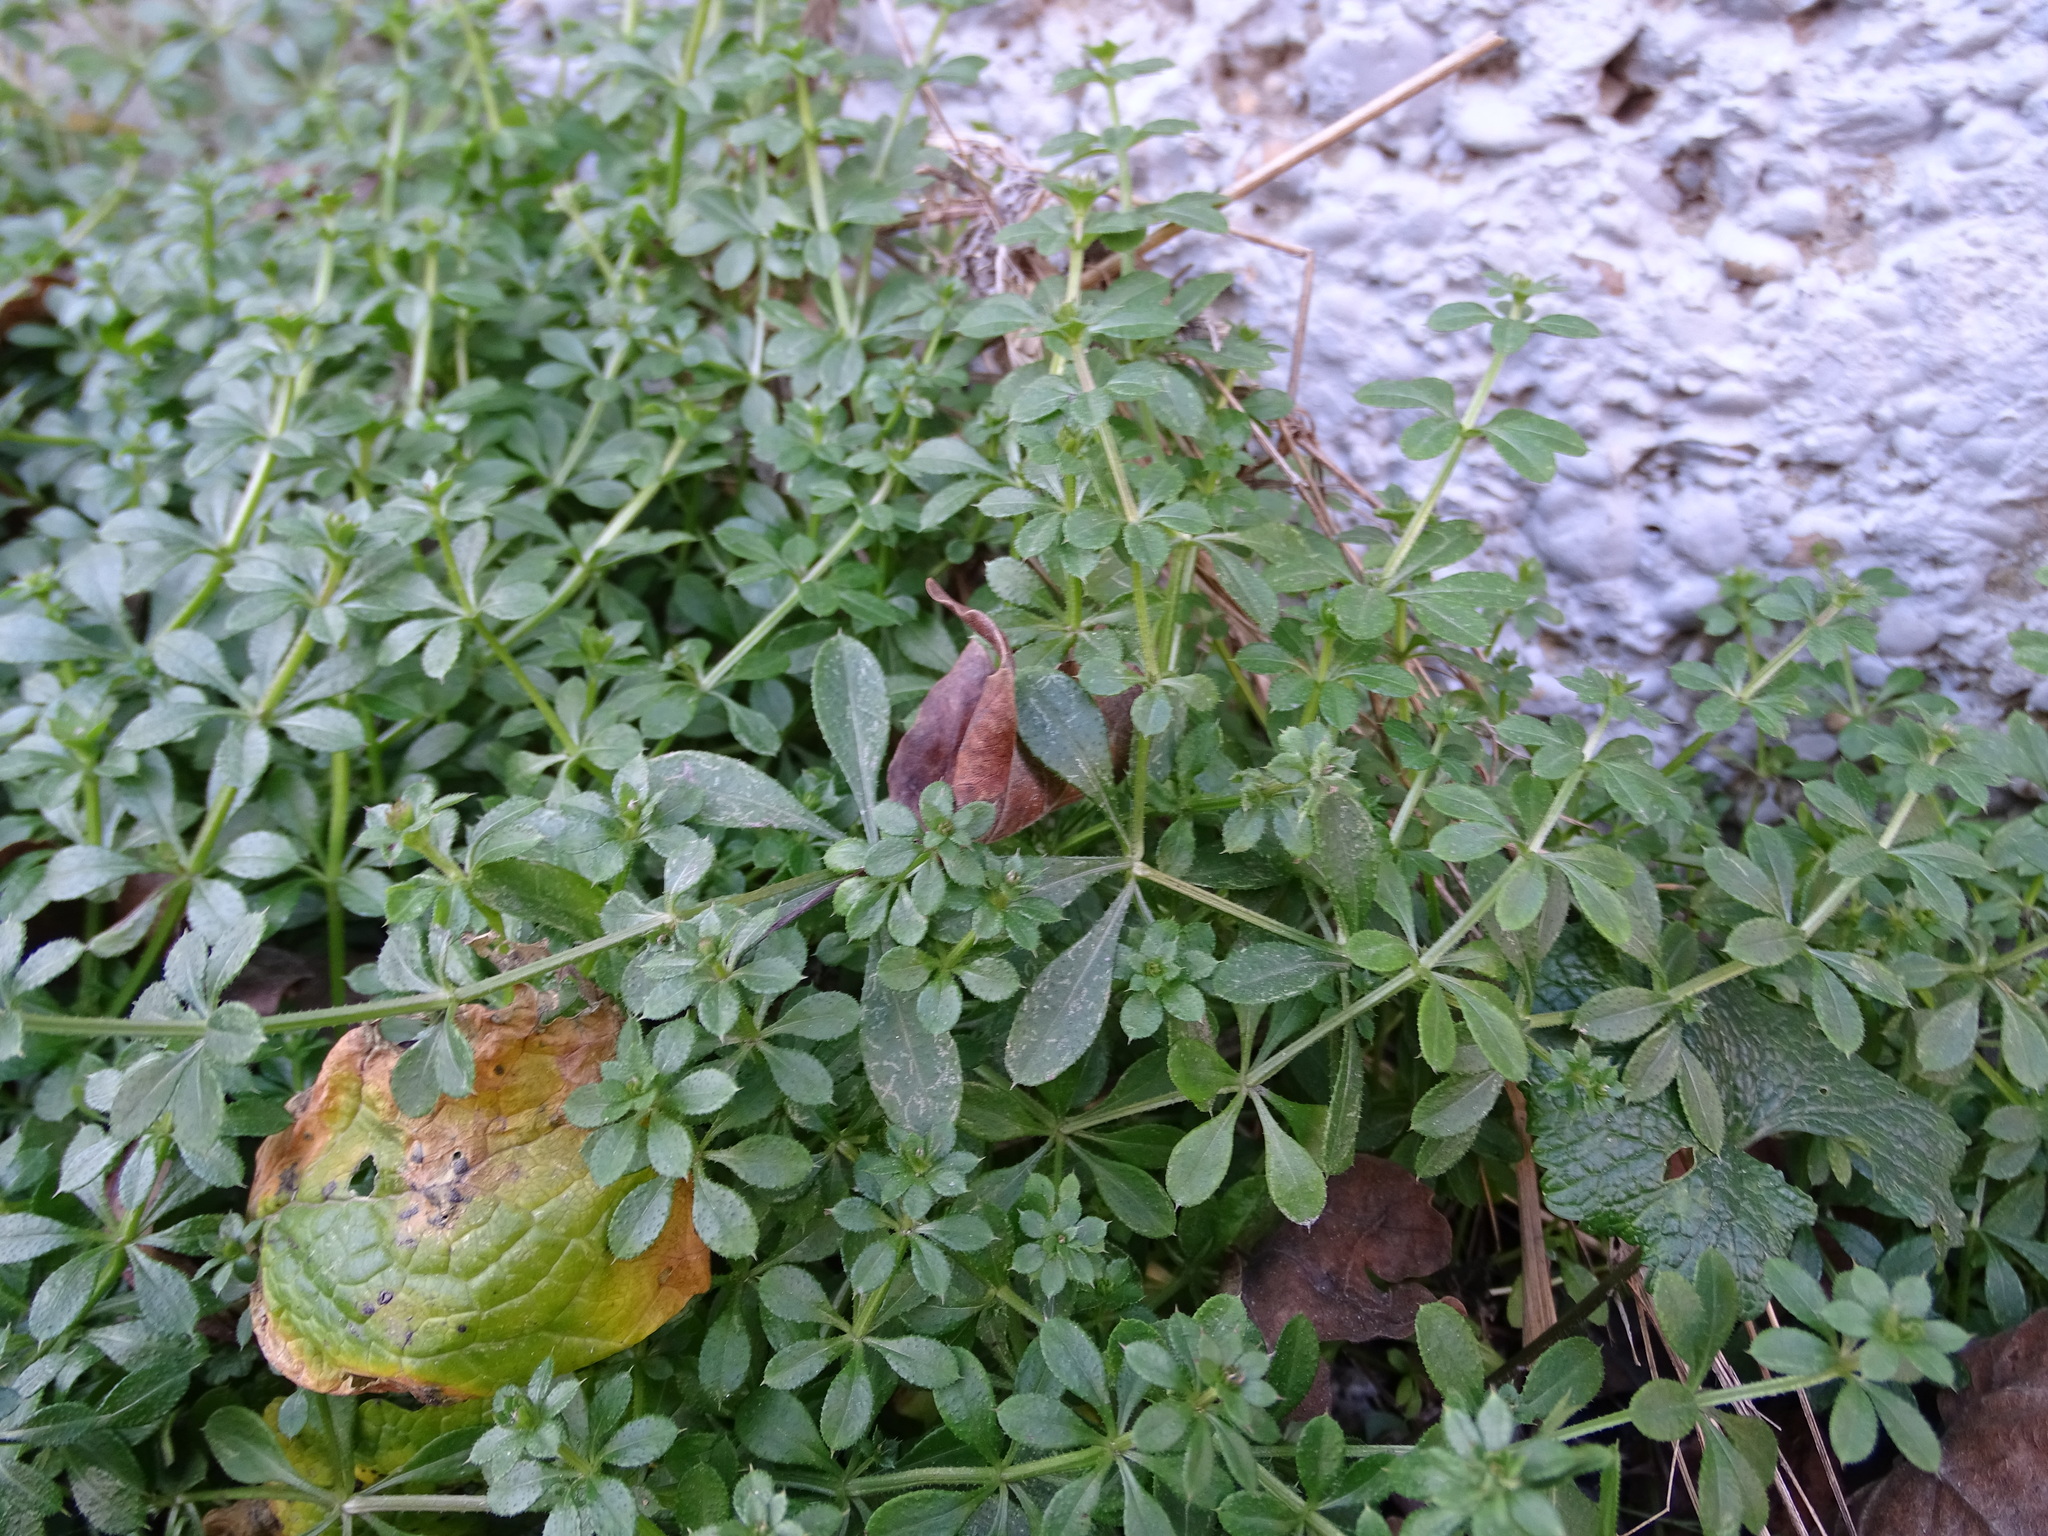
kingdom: Plantae
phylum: Tracheophyta
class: Magnoliopsida
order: Gentianales
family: Rubiaceae
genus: Galium
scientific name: Galium aparine
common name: Cleavers
